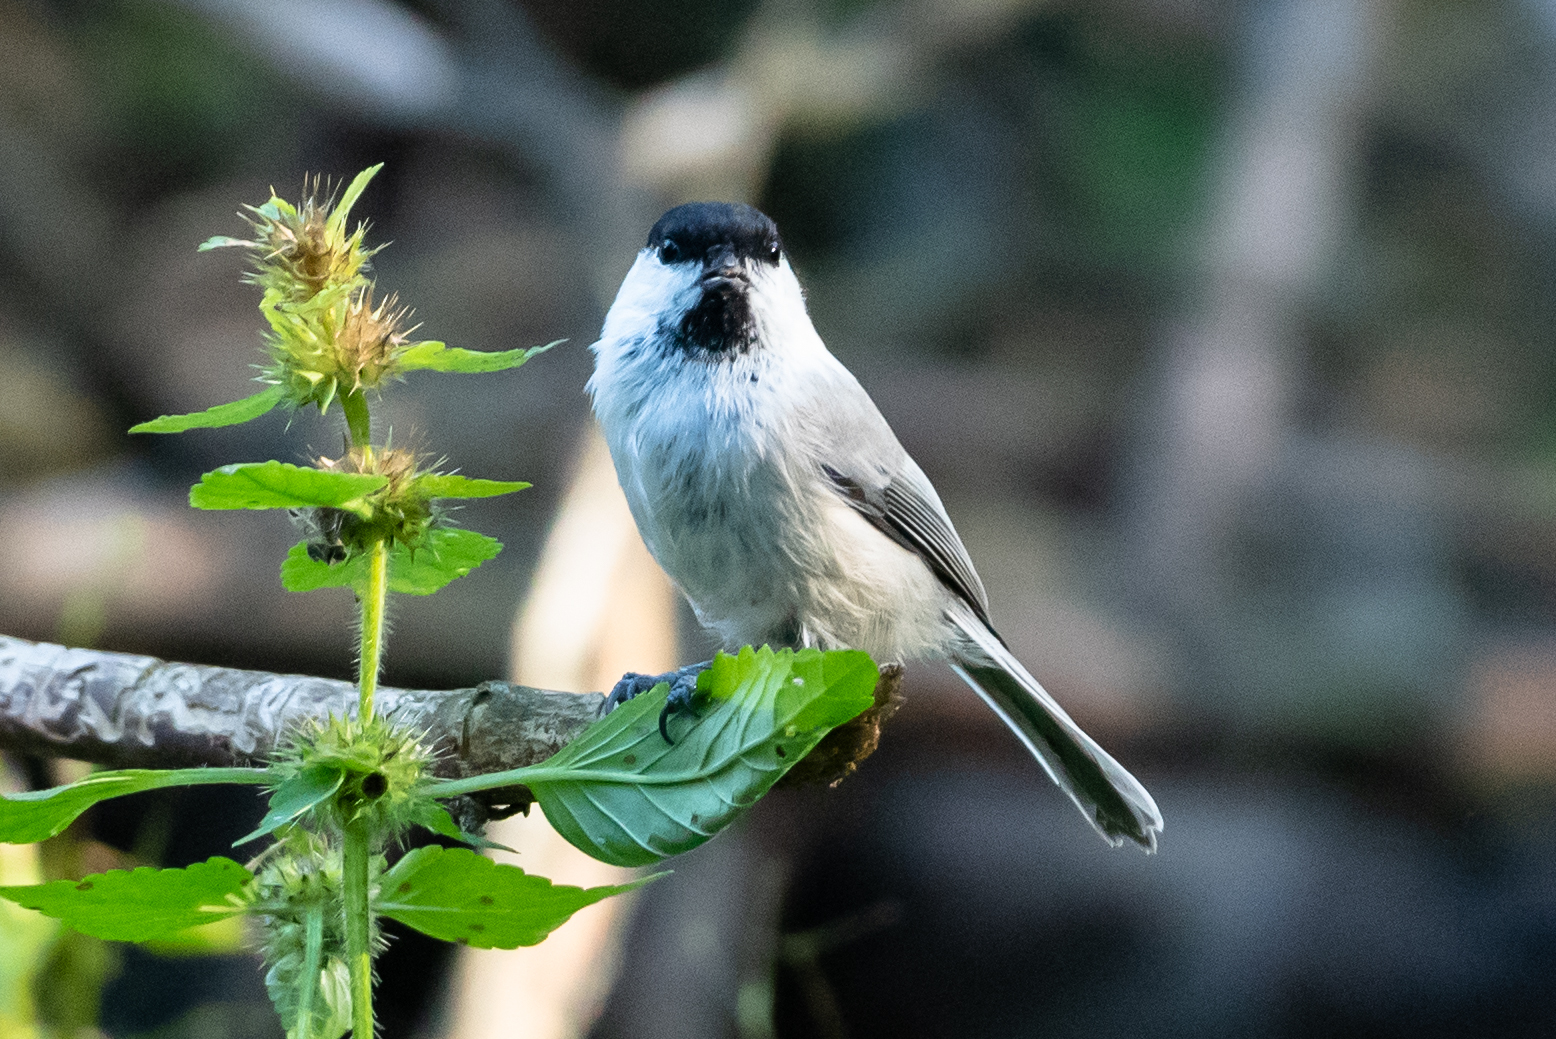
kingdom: Animalia
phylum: Chordata
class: Aves
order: Passeriformes
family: Paridae
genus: Poecile
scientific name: Poecile montanus
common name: Willow tit
